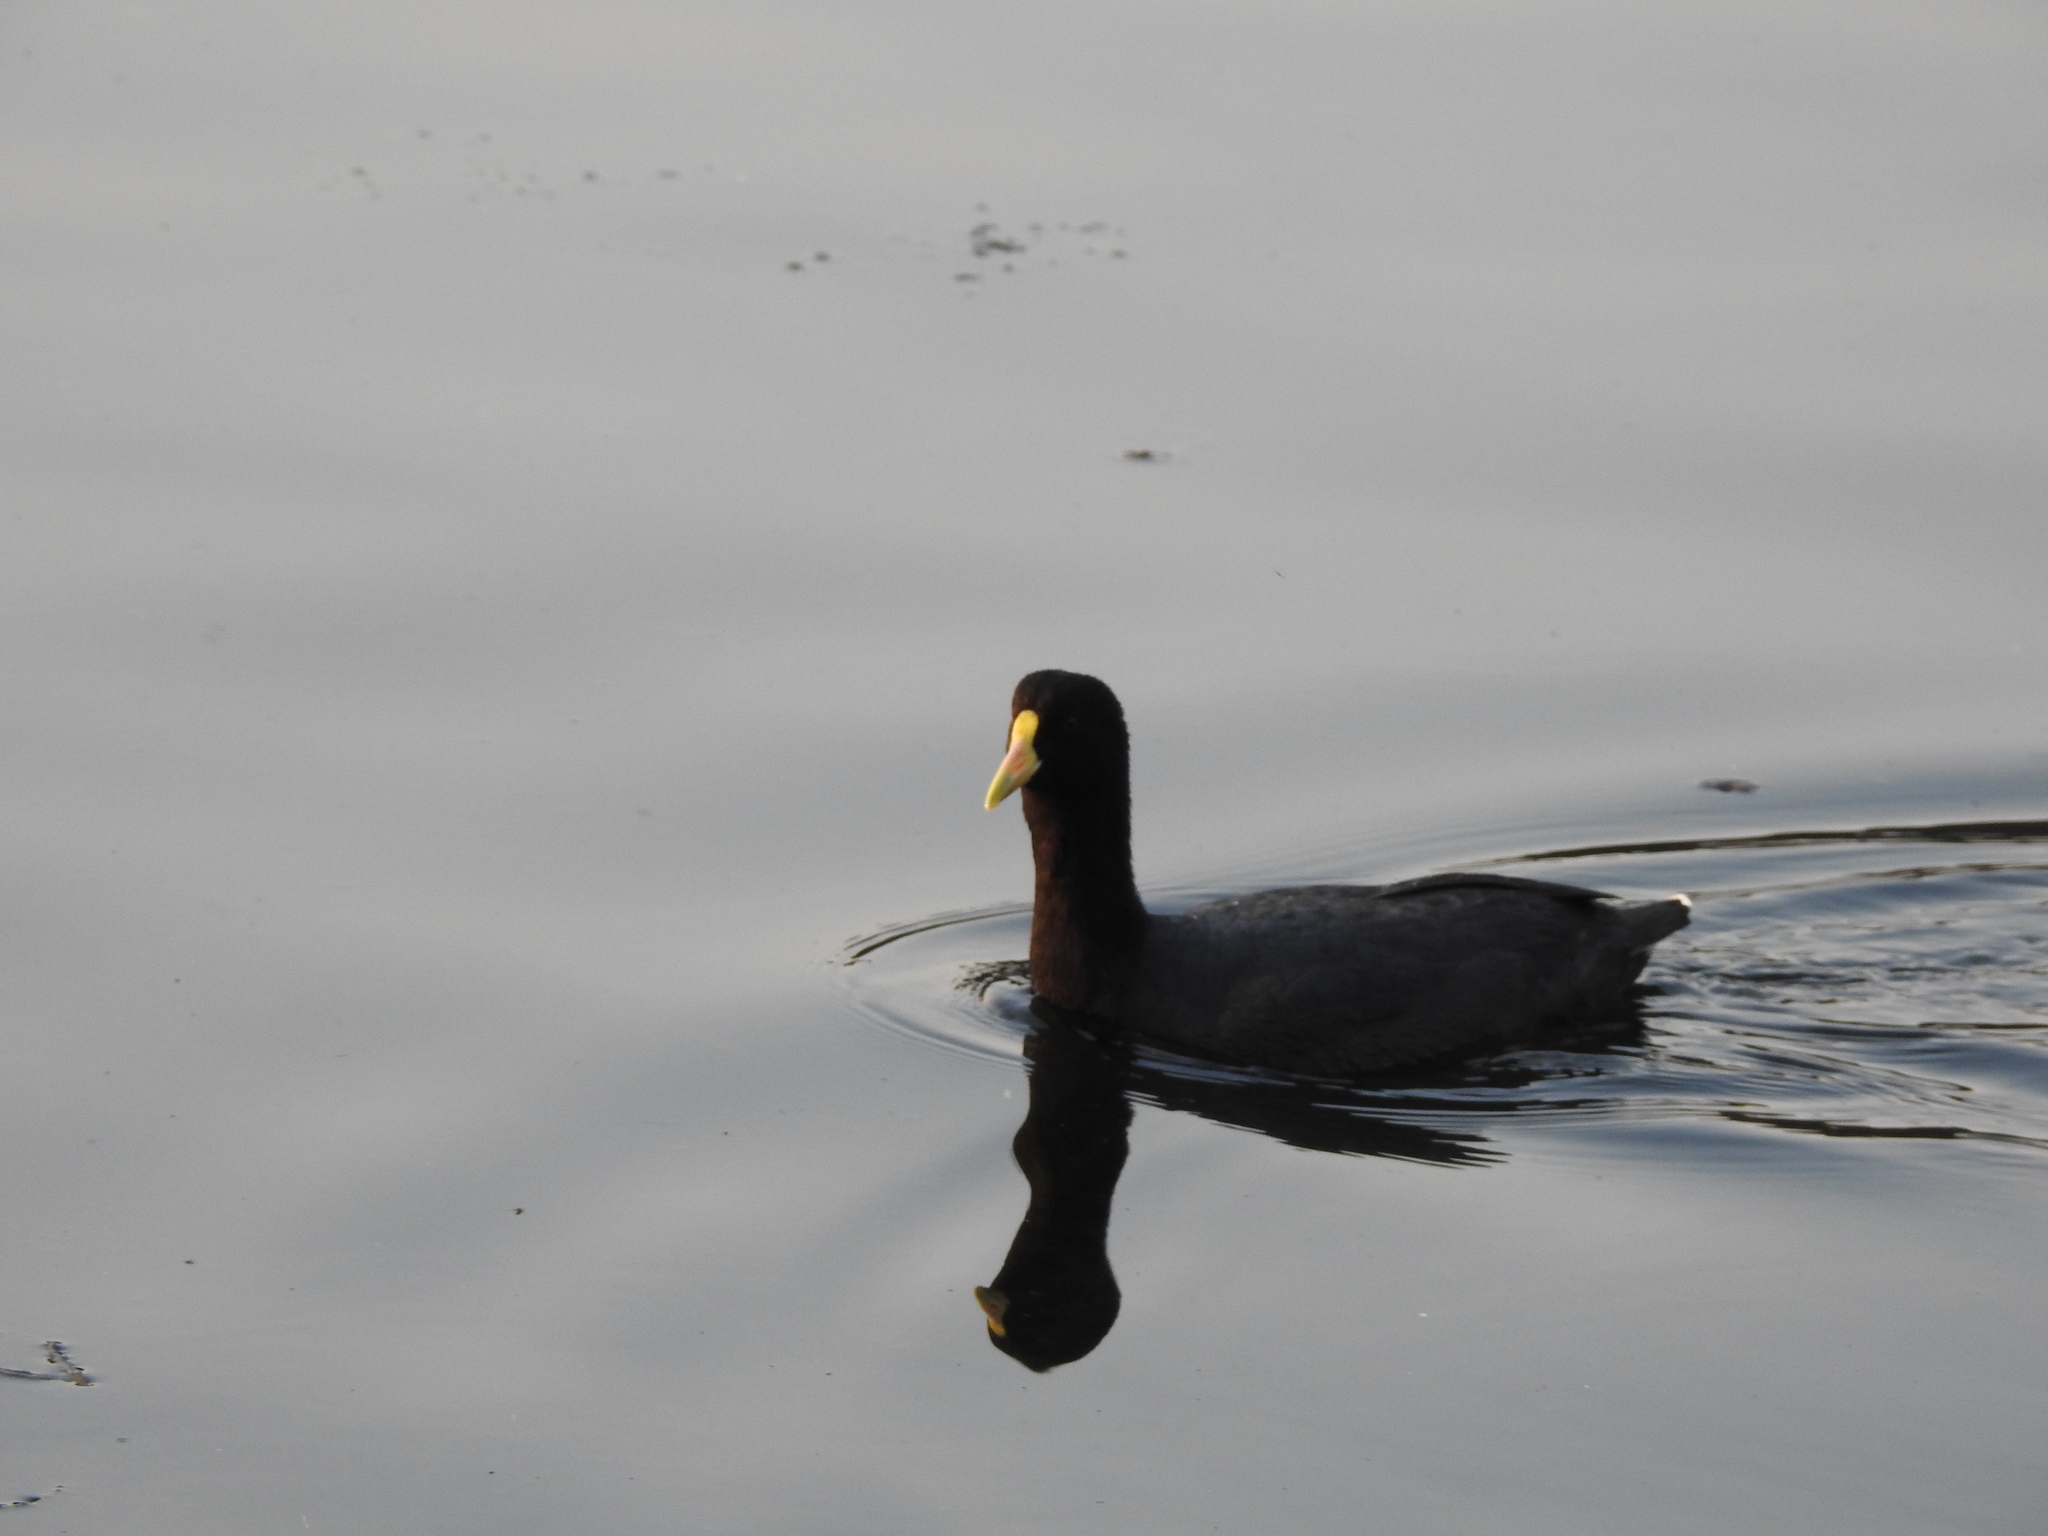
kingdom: Animalia
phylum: Chordata
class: Aves
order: Gruiformes
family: Rallidae
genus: Fulica
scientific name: Fulica leucoptera
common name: White-winged coot
